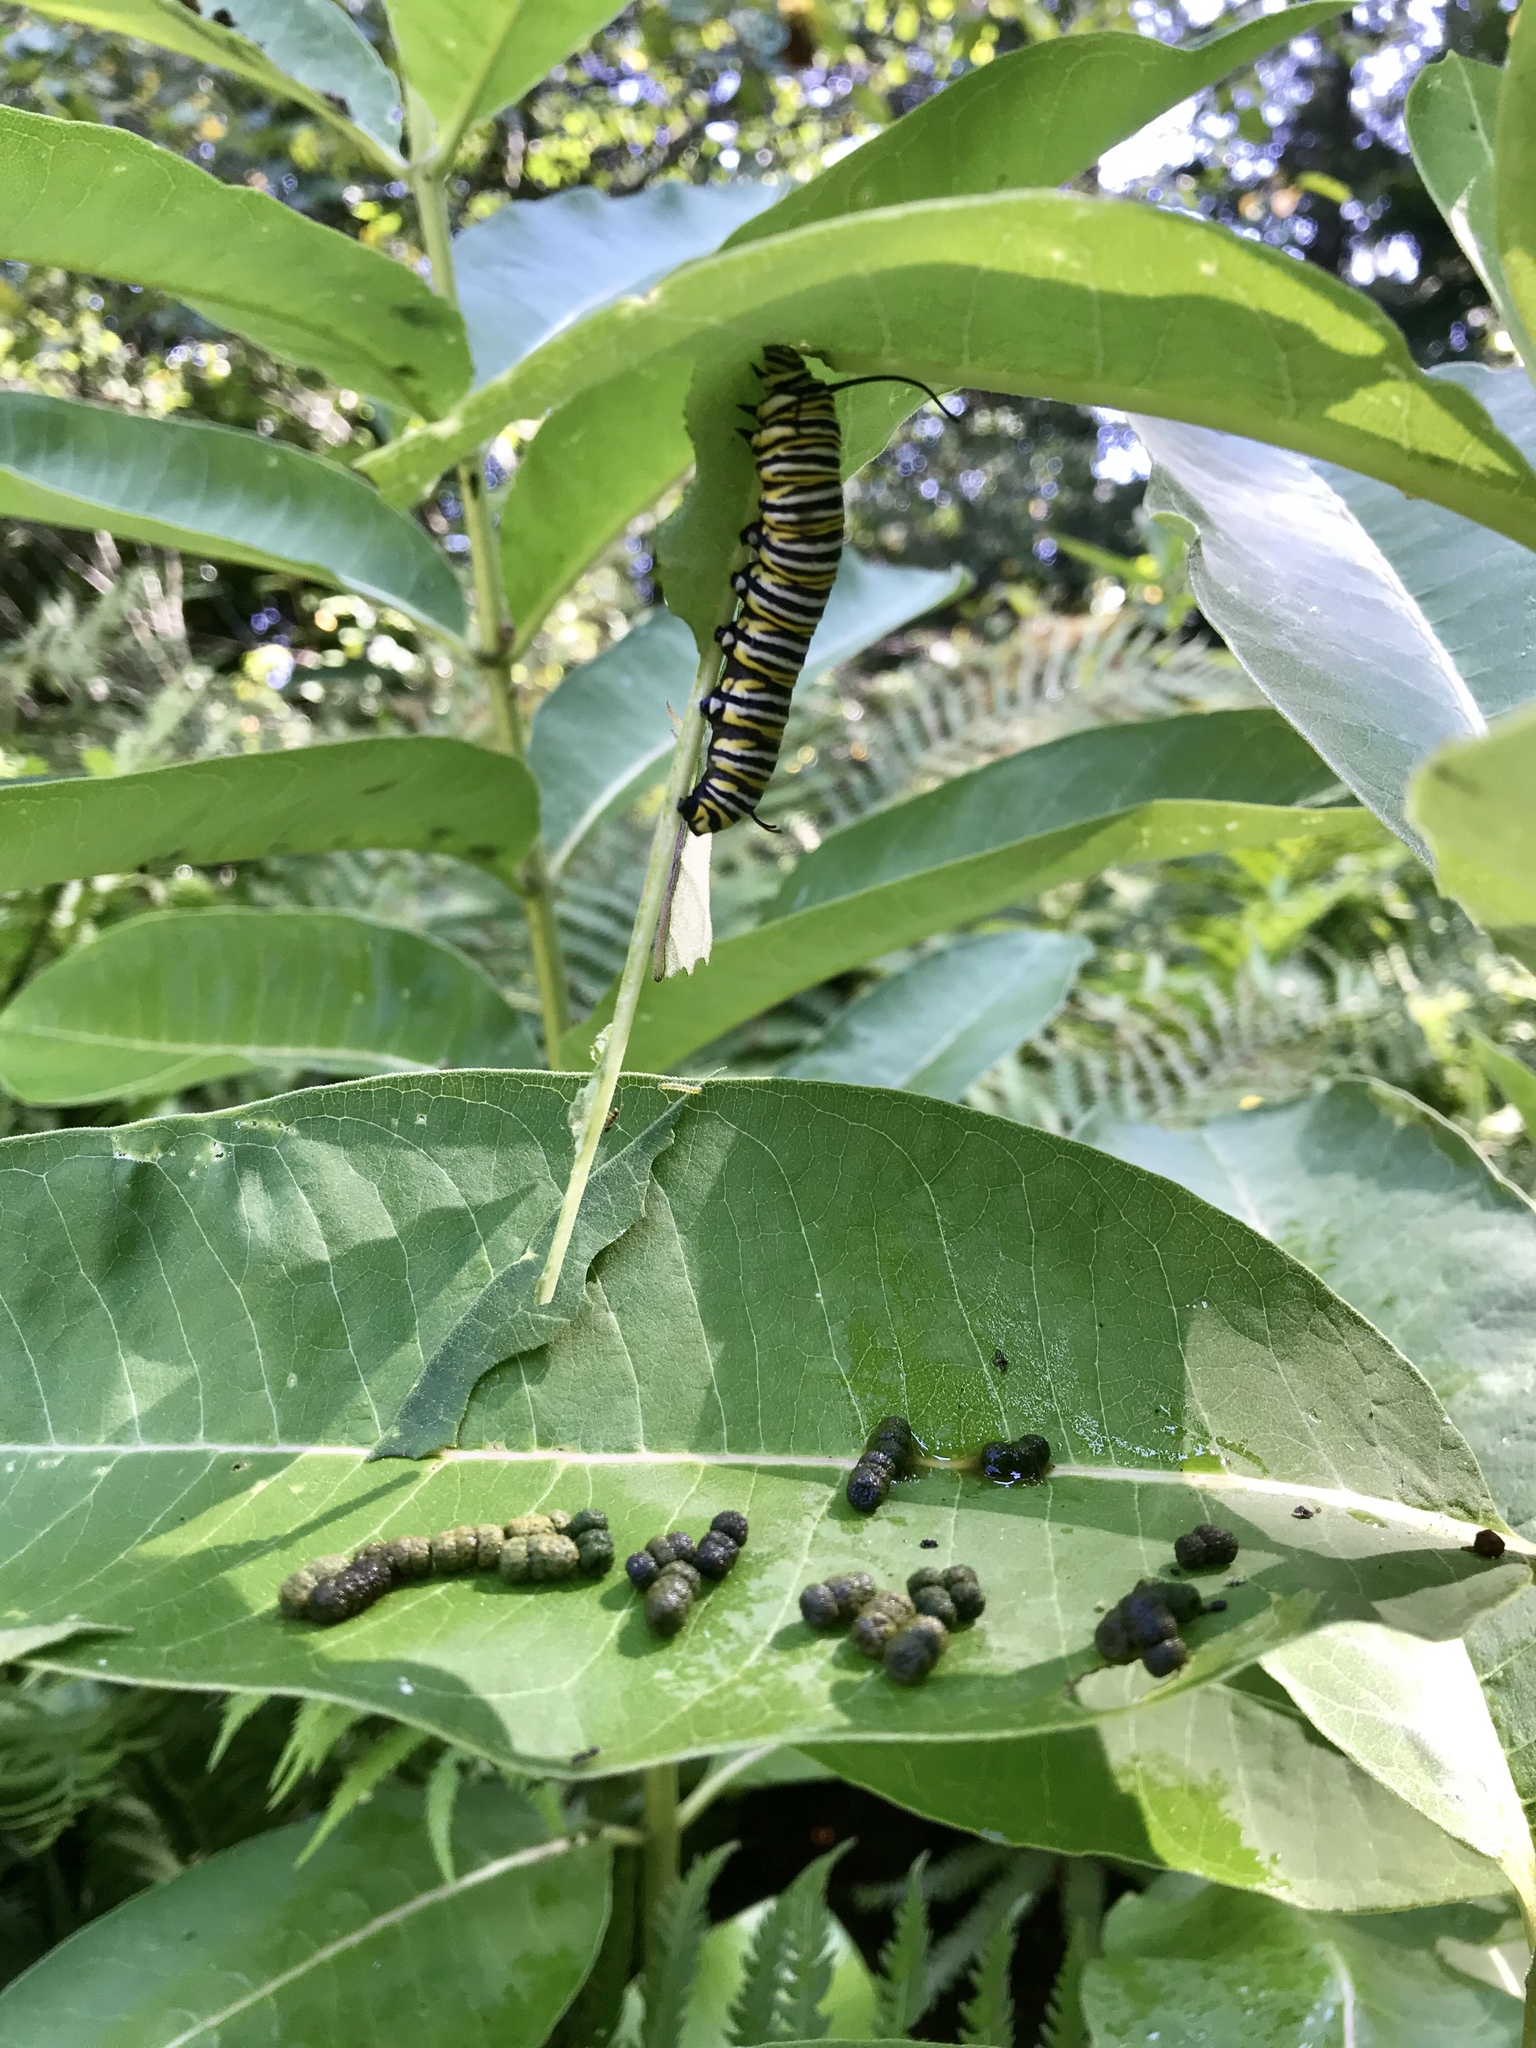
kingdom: Animalia
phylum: Arthropoda
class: Insecta
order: Lepidoptera
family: Nymphalidae
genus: Danaus
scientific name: Danaus plexippus
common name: Monarch
